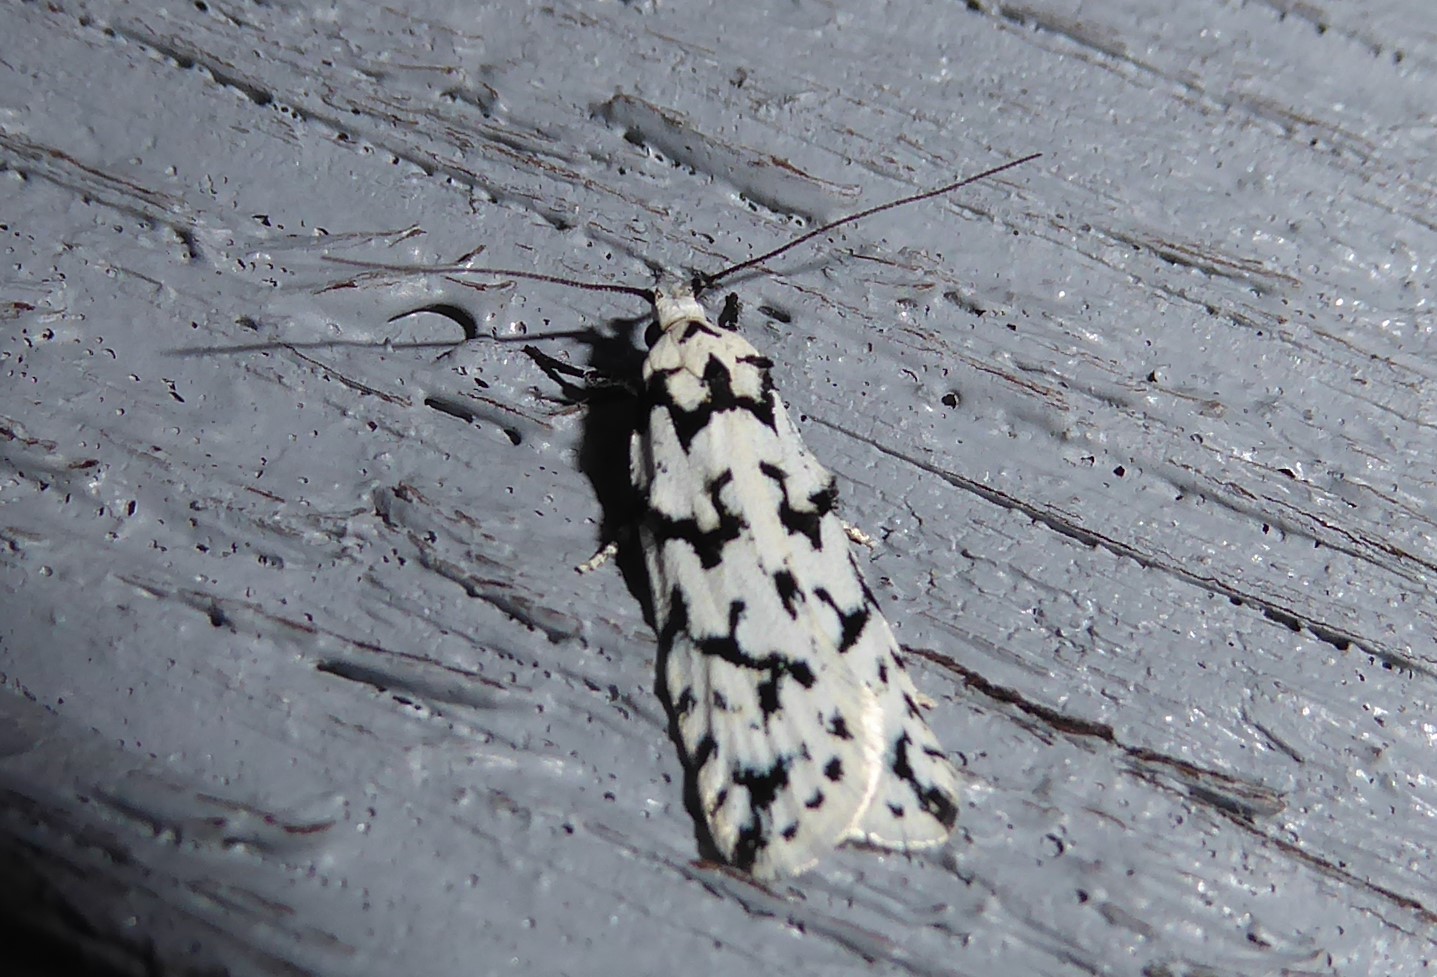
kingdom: Animalia
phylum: Arthropoda
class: Insecta
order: Lepidoptera
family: Oecophoridae
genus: Izatha
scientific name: Izatha katadiktya
